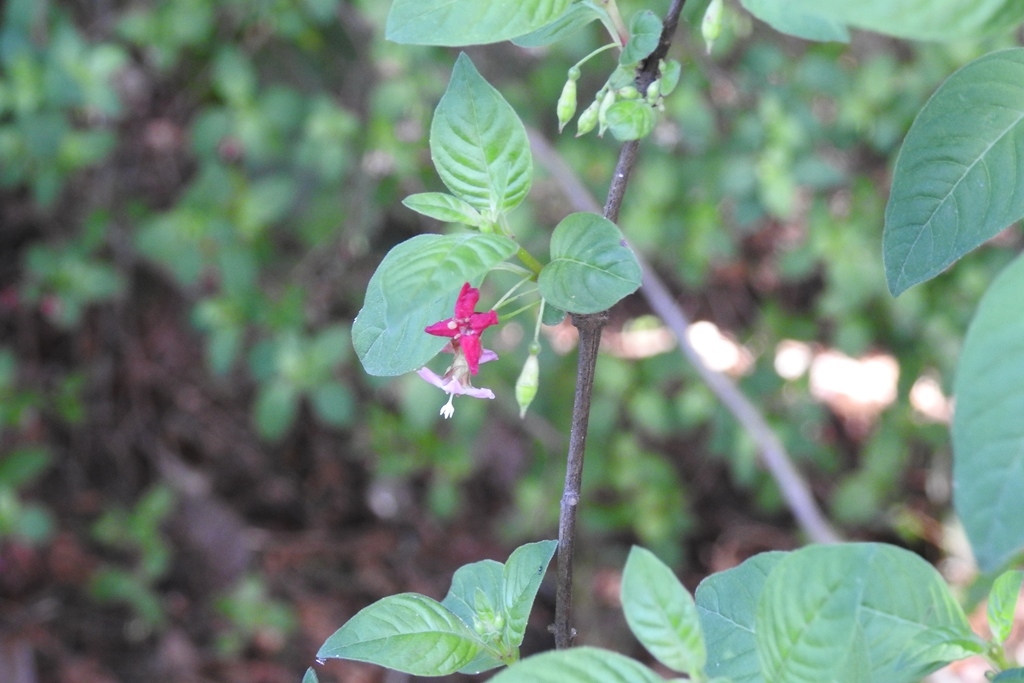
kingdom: Plantae
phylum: Tracheophyta
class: Magnoliopsida
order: Myrtales
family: Onagraceae
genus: Fuchsia
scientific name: Fuchsia encliandra
